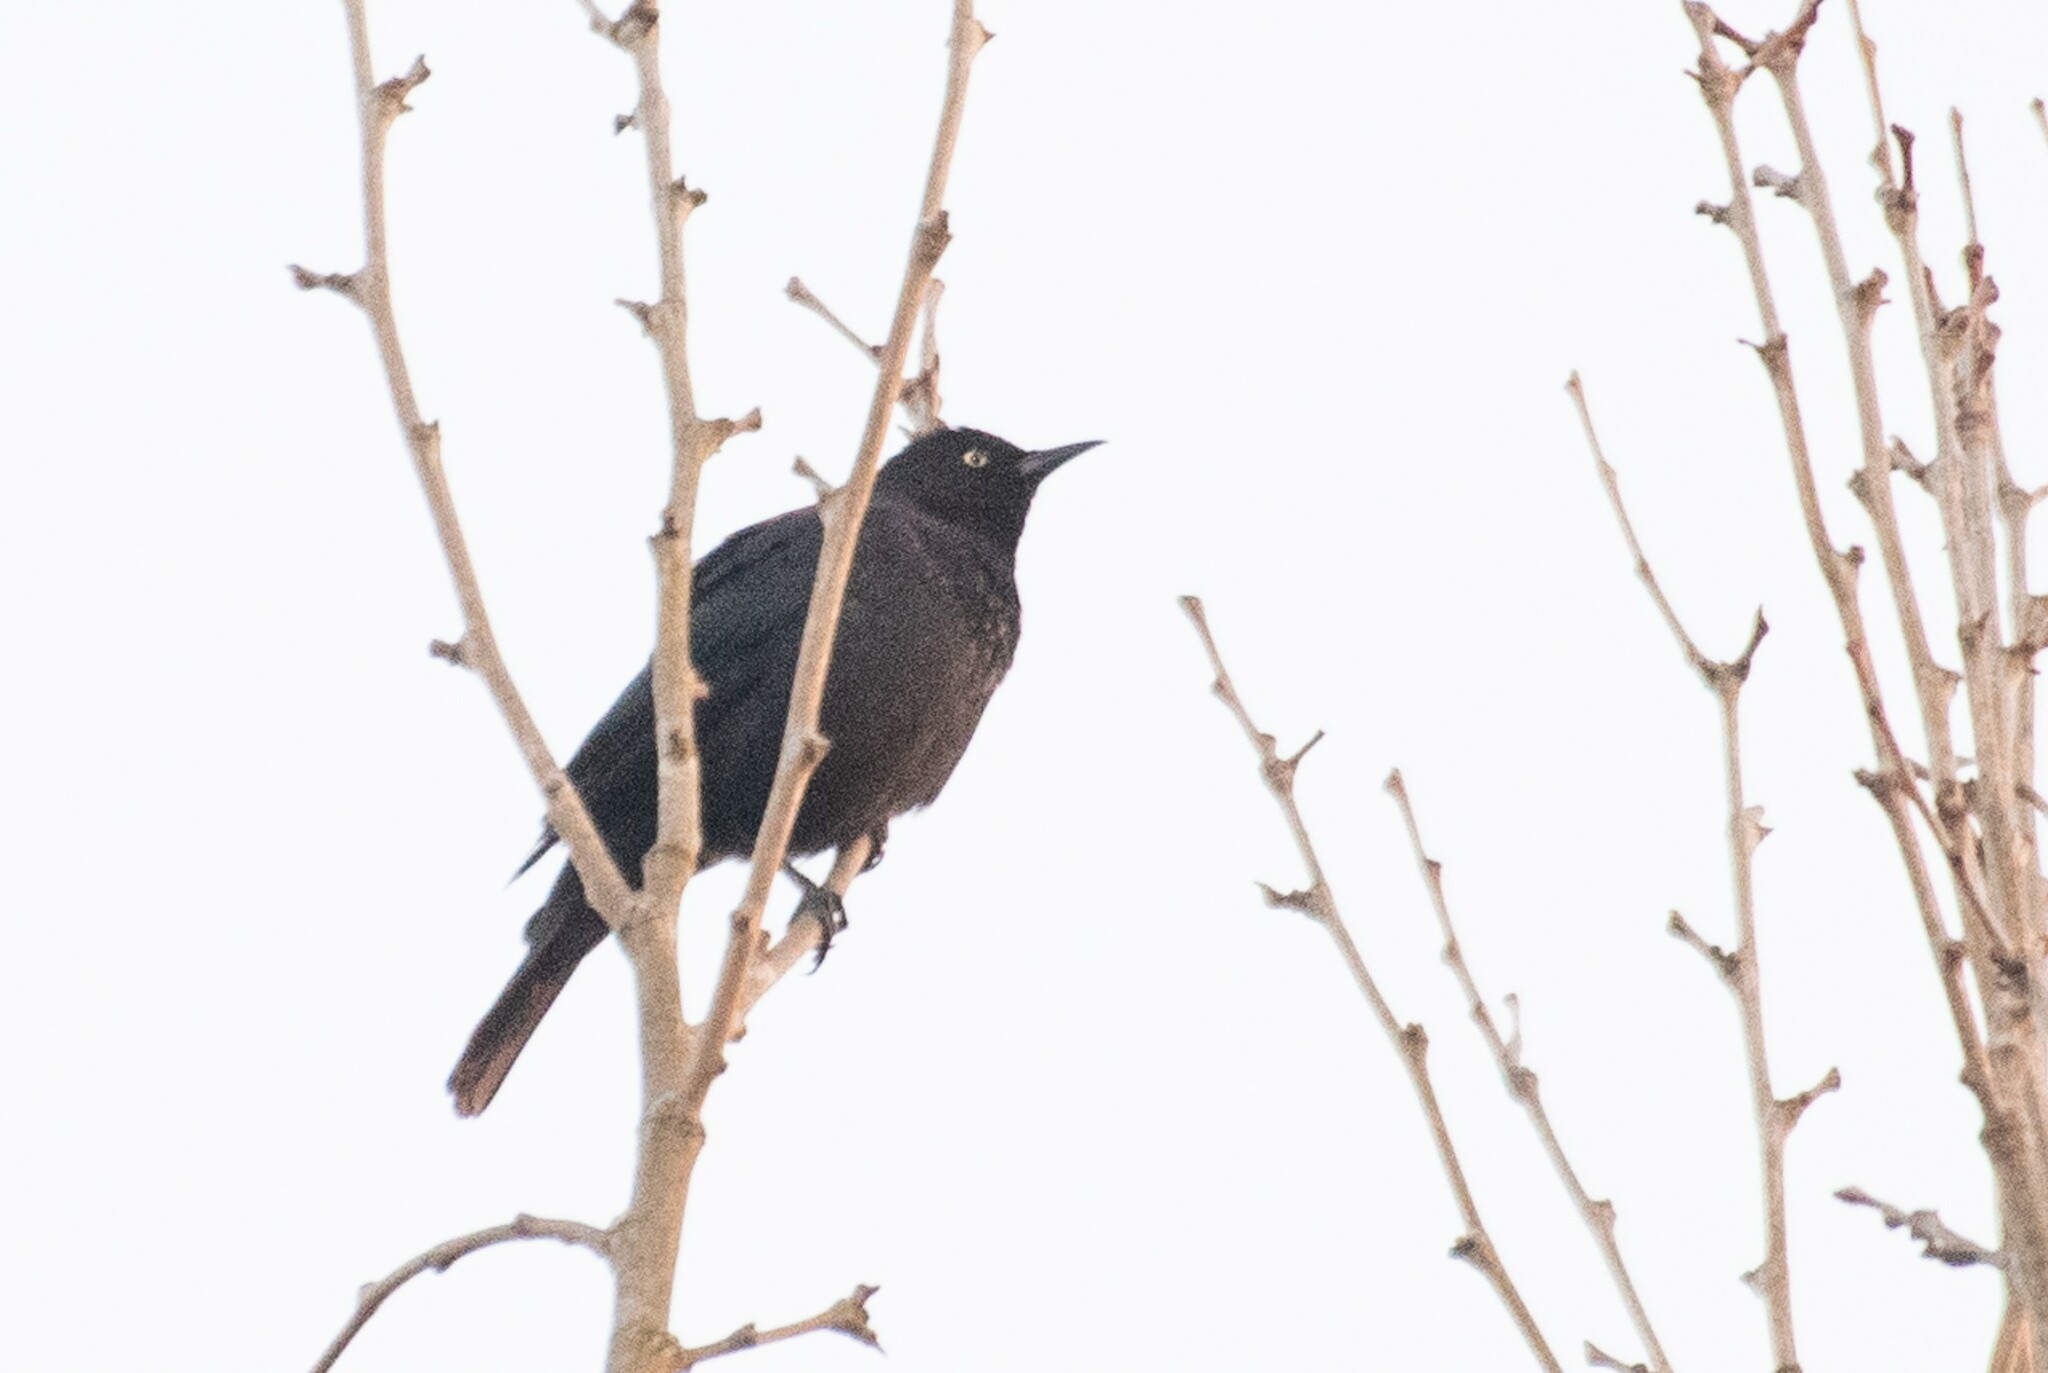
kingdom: Animalia
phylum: Chordata
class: Aves
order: Passeriformes
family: Icteridae
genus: Euphagus
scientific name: Euphagus carolinus
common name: Rusty blackbird
